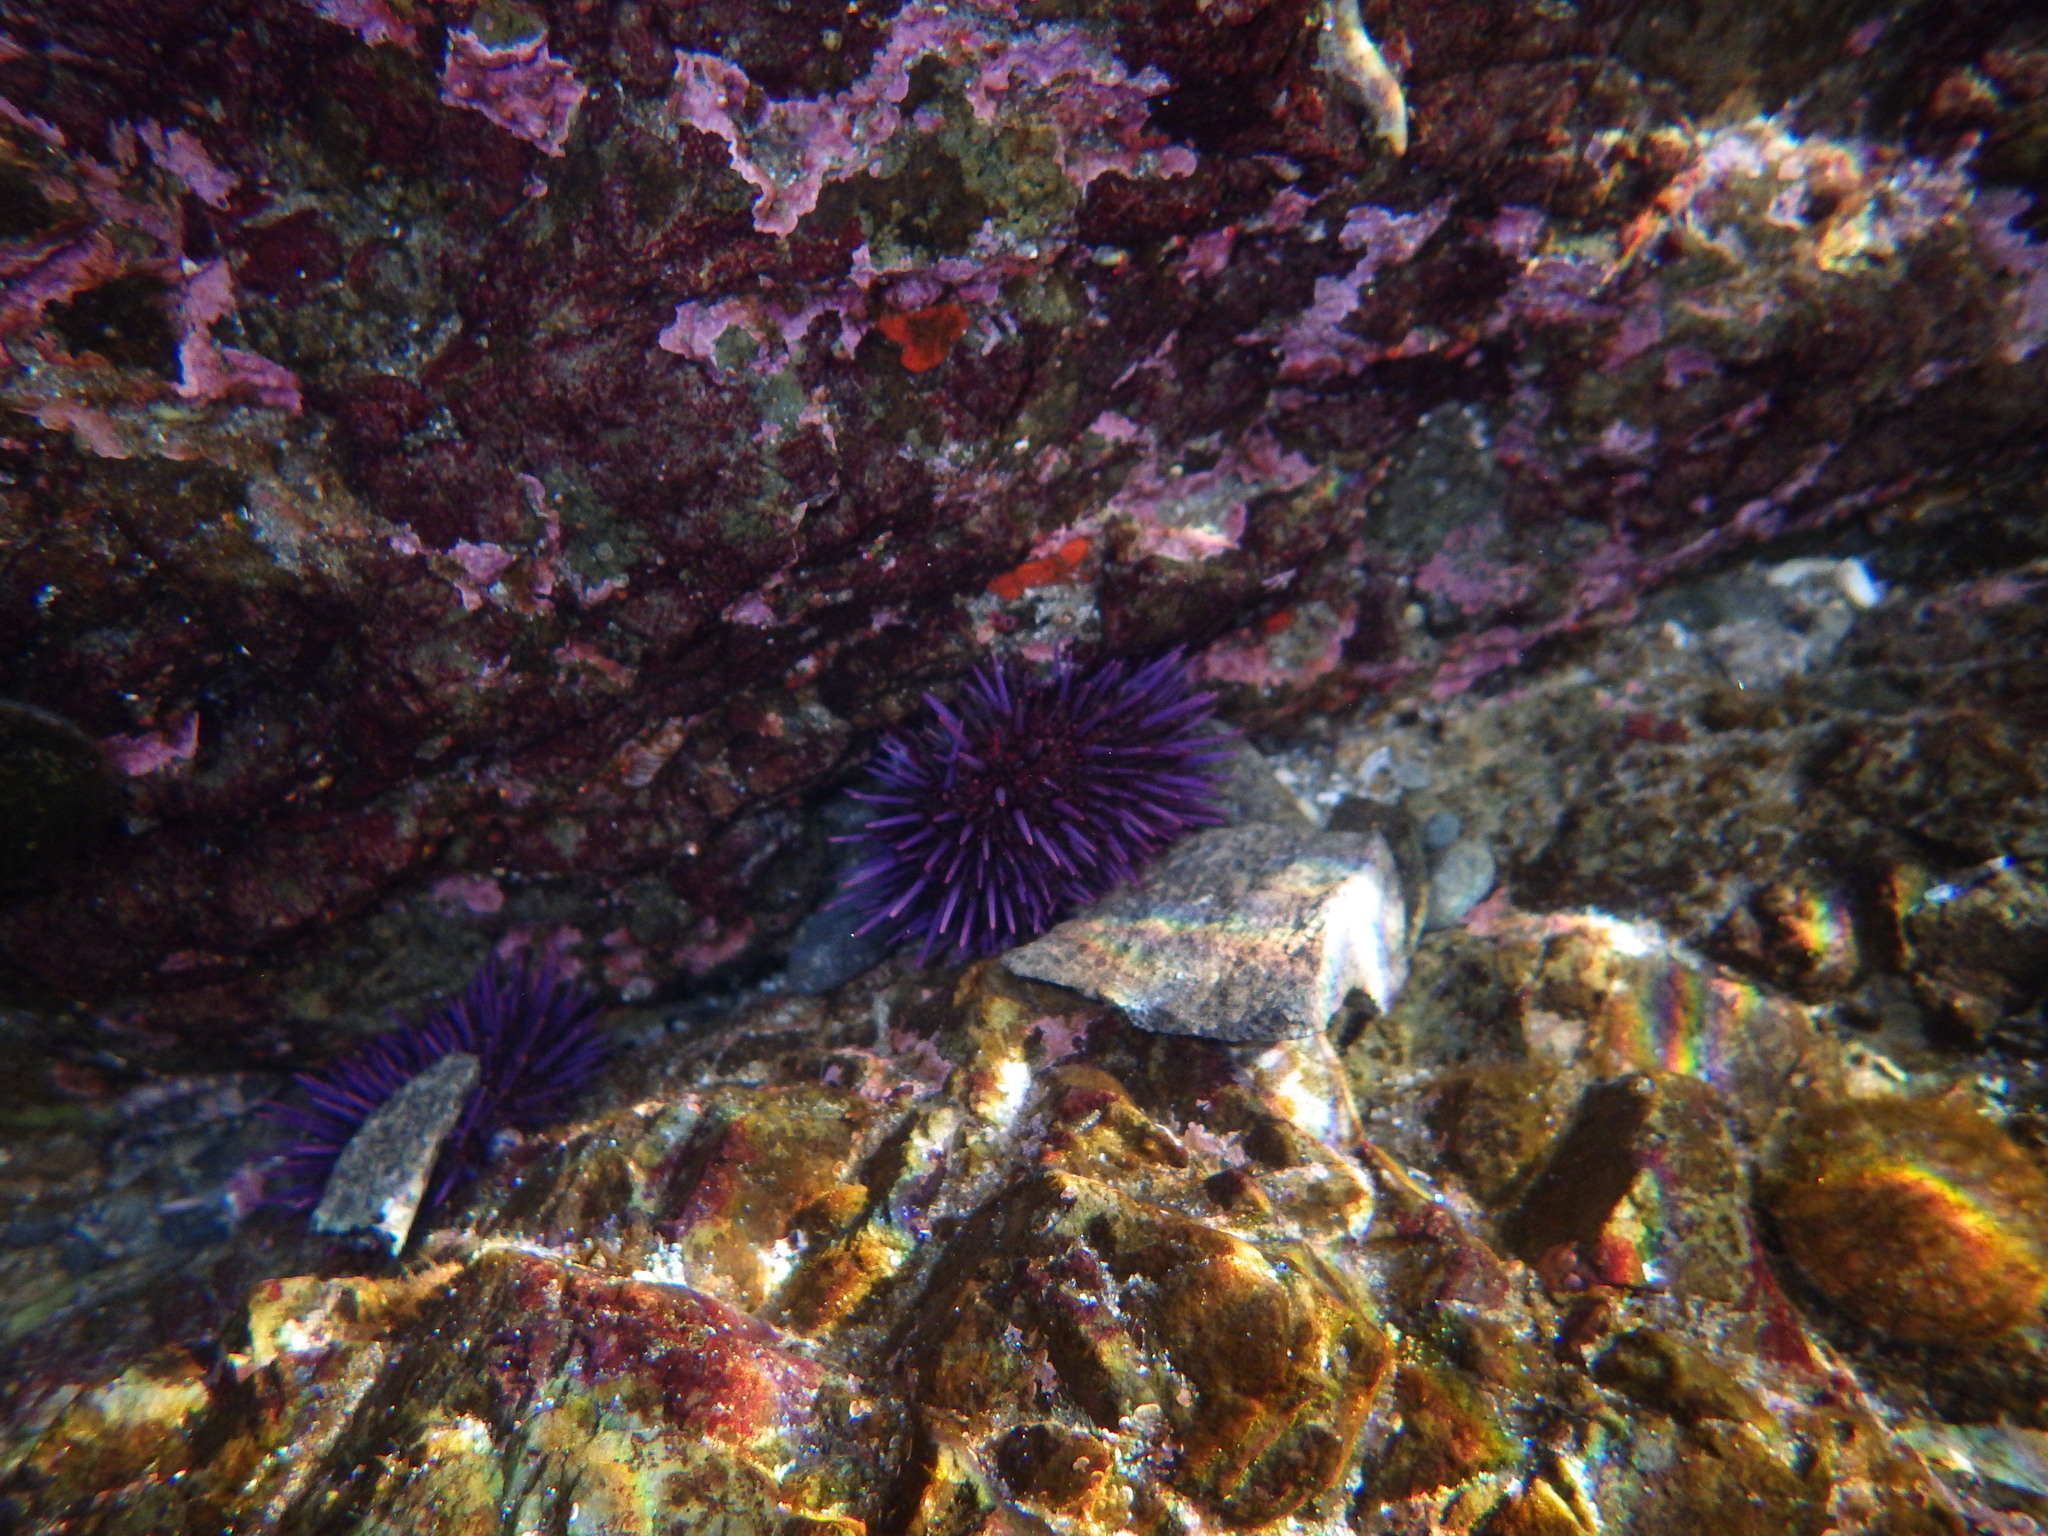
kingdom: Animalia
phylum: Echinodermata
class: Echinoidea
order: Camarodonta
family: Strongylocentrotidae
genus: Strongylocentrotus
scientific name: Strongylocentrotus purpuratus
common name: Purple sea urchin
